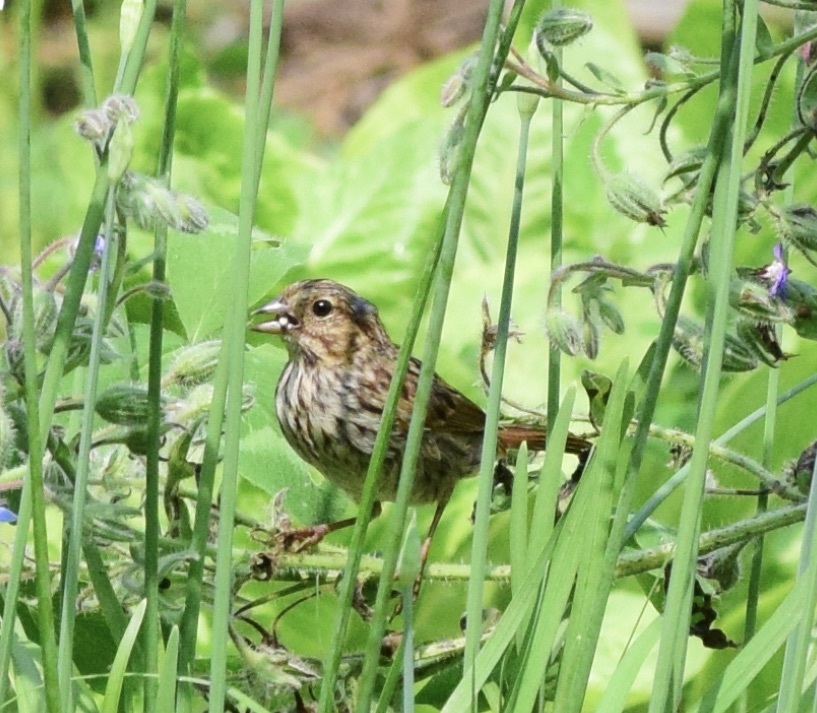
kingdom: Animalia
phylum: Chordata
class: Aves
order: Passeriformes
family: Passerellidae
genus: Melospiza
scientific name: Melospiza melodia
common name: Song sparrow
